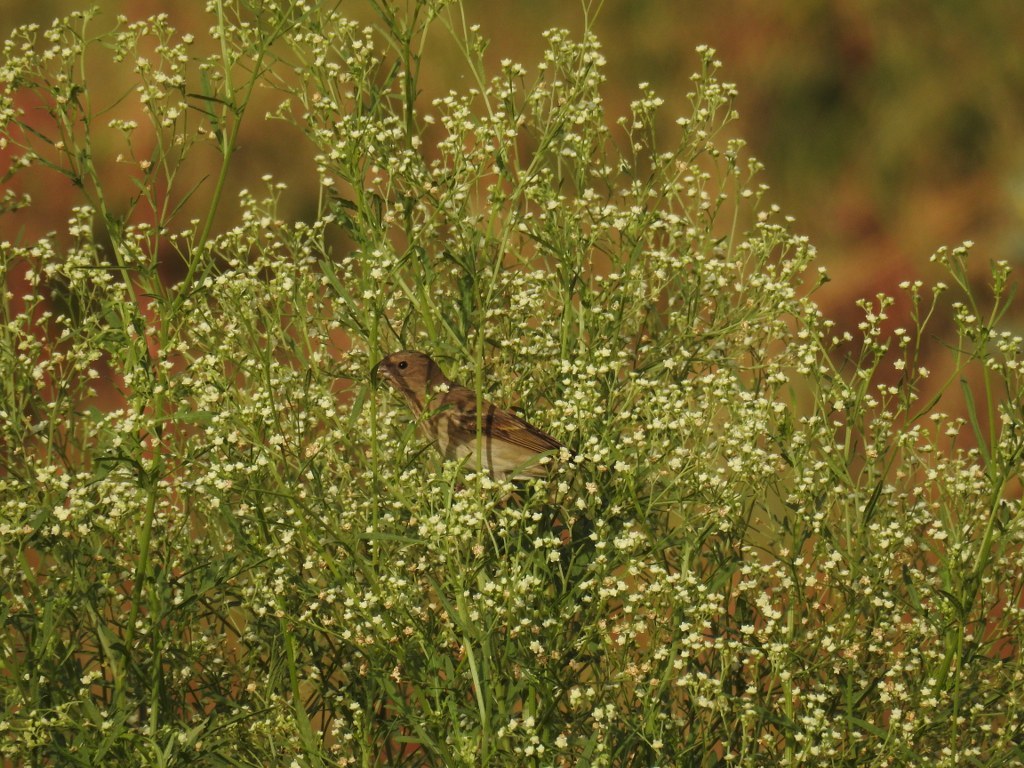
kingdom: Plantae
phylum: Tracheophyta
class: Magnoliopsida
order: Asterales
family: Asteraceae
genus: Parthenium
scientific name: Parthenium hysterophorus
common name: Santa maria feverfew
